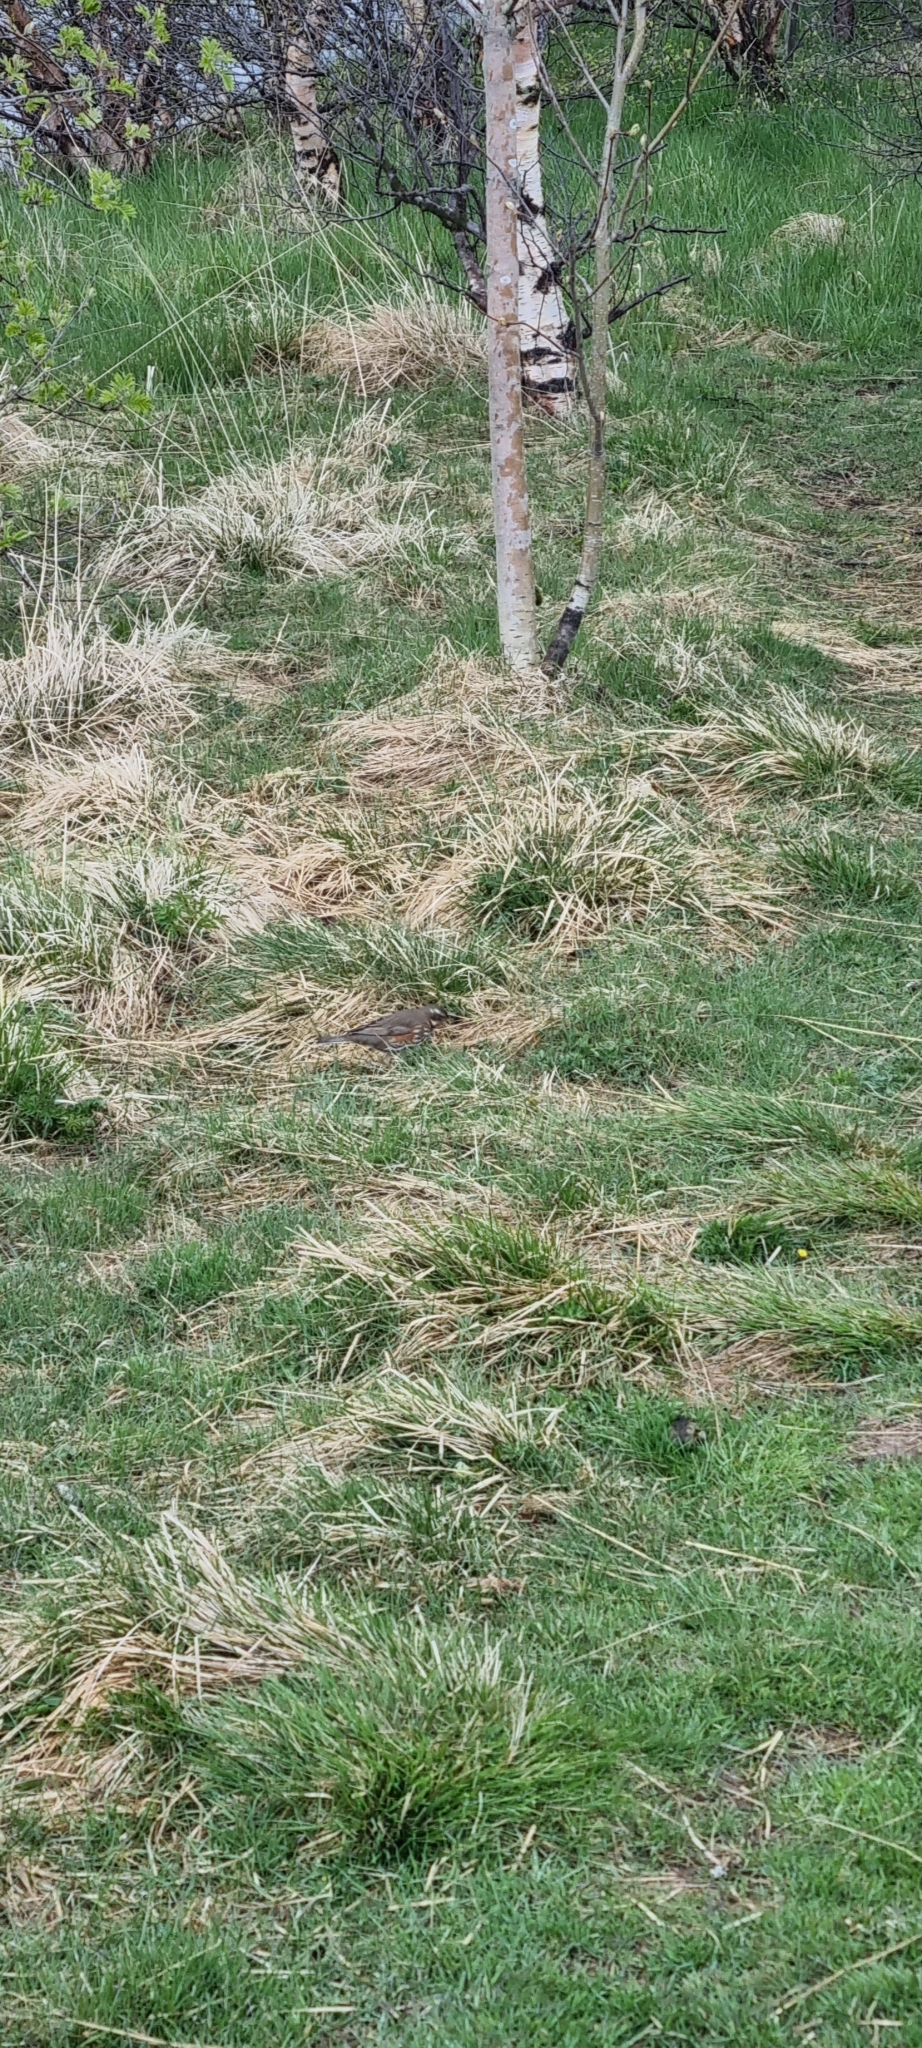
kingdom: Animalia
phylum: Chordata
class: Aves
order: Passeriformes
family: Turdidae
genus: Turdus
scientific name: Turdus iliacus
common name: Redwing
